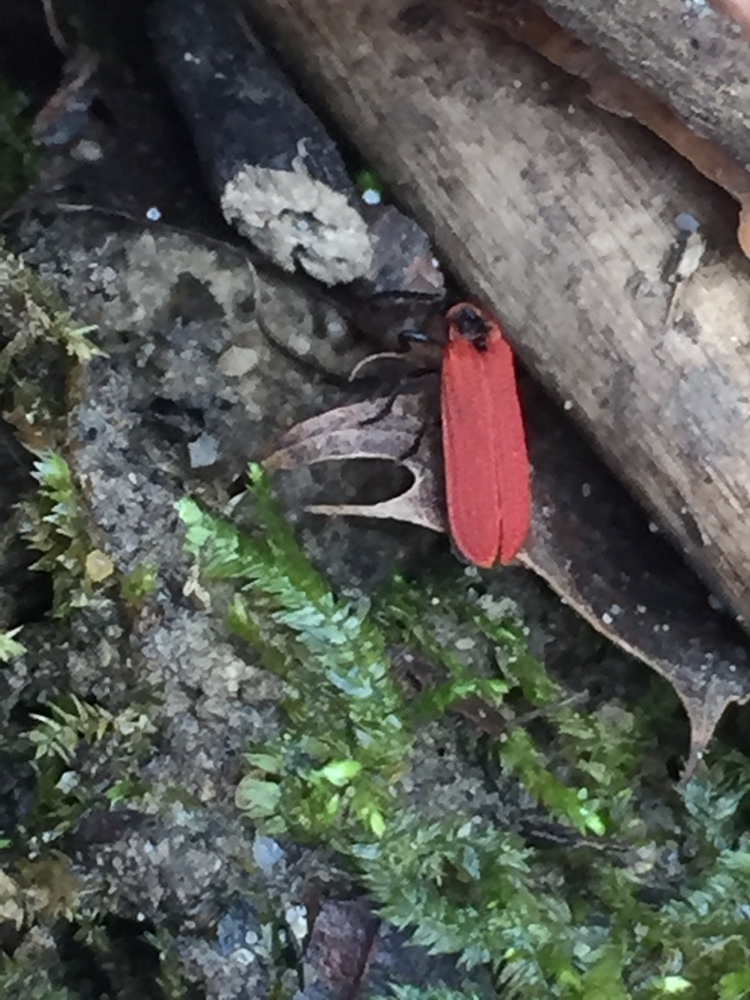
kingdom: Animalia
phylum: Arthropoda
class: Insecta
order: Coleoptera
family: Lycidae
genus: Dictyoptera
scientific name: Dictyoptera aurora
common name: Golden net-winged beetle
